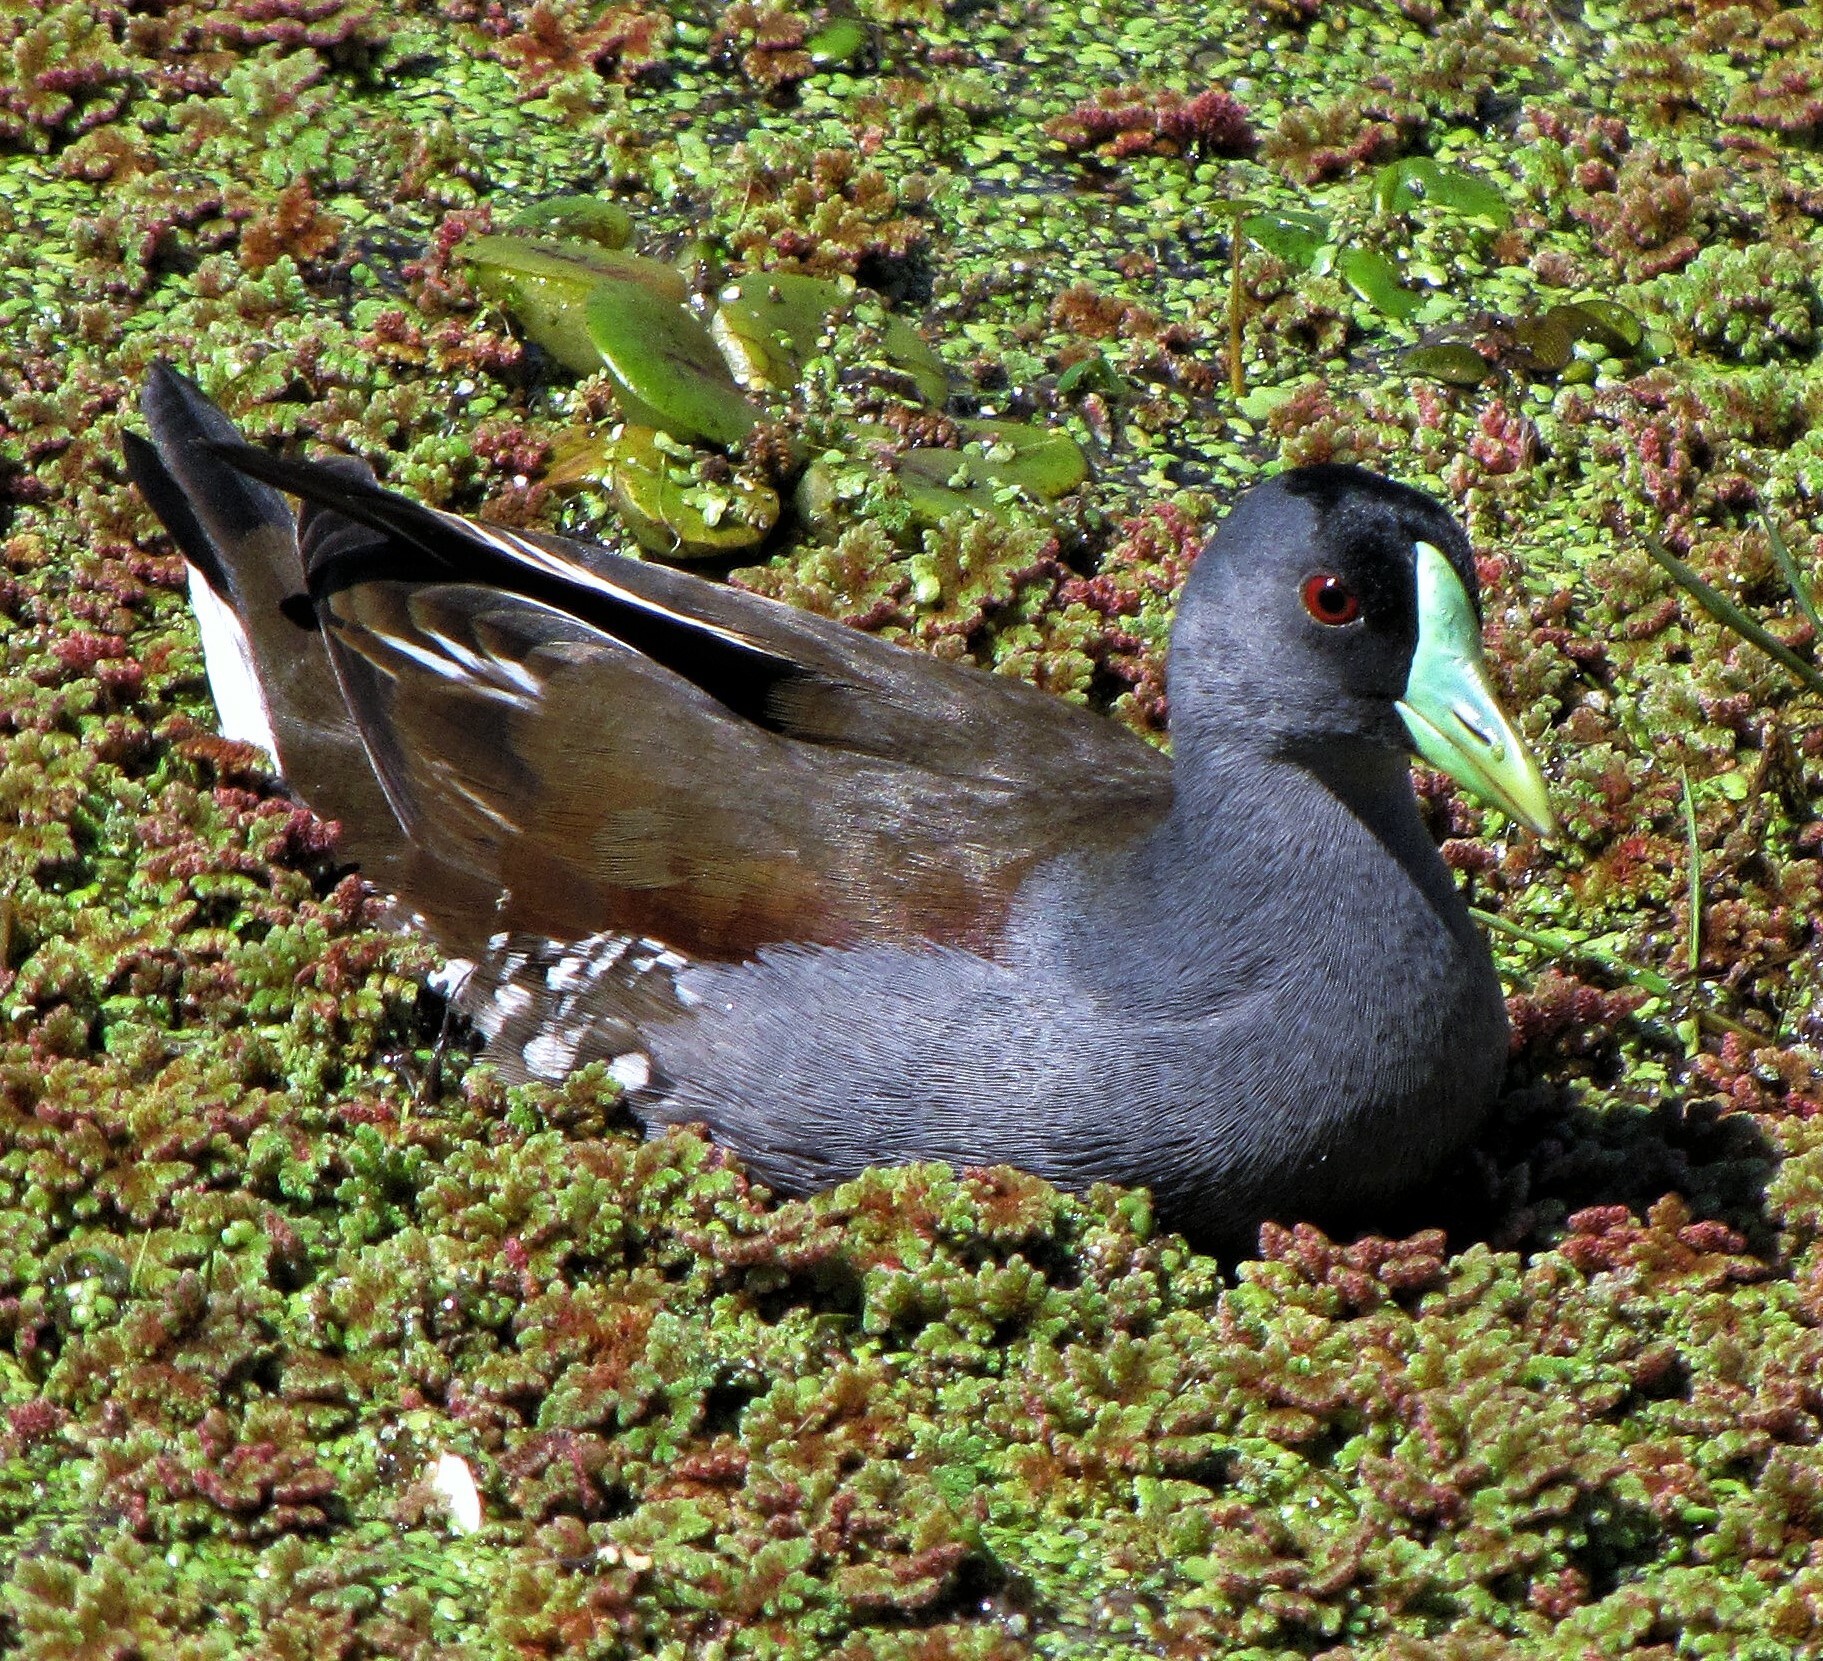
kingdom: Animalia
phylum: Chordata
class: Aves
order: Gruiformes
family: Rallidae
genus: Gallinula
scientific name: Gallinula melanops
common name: Spot-flanked gallinule
